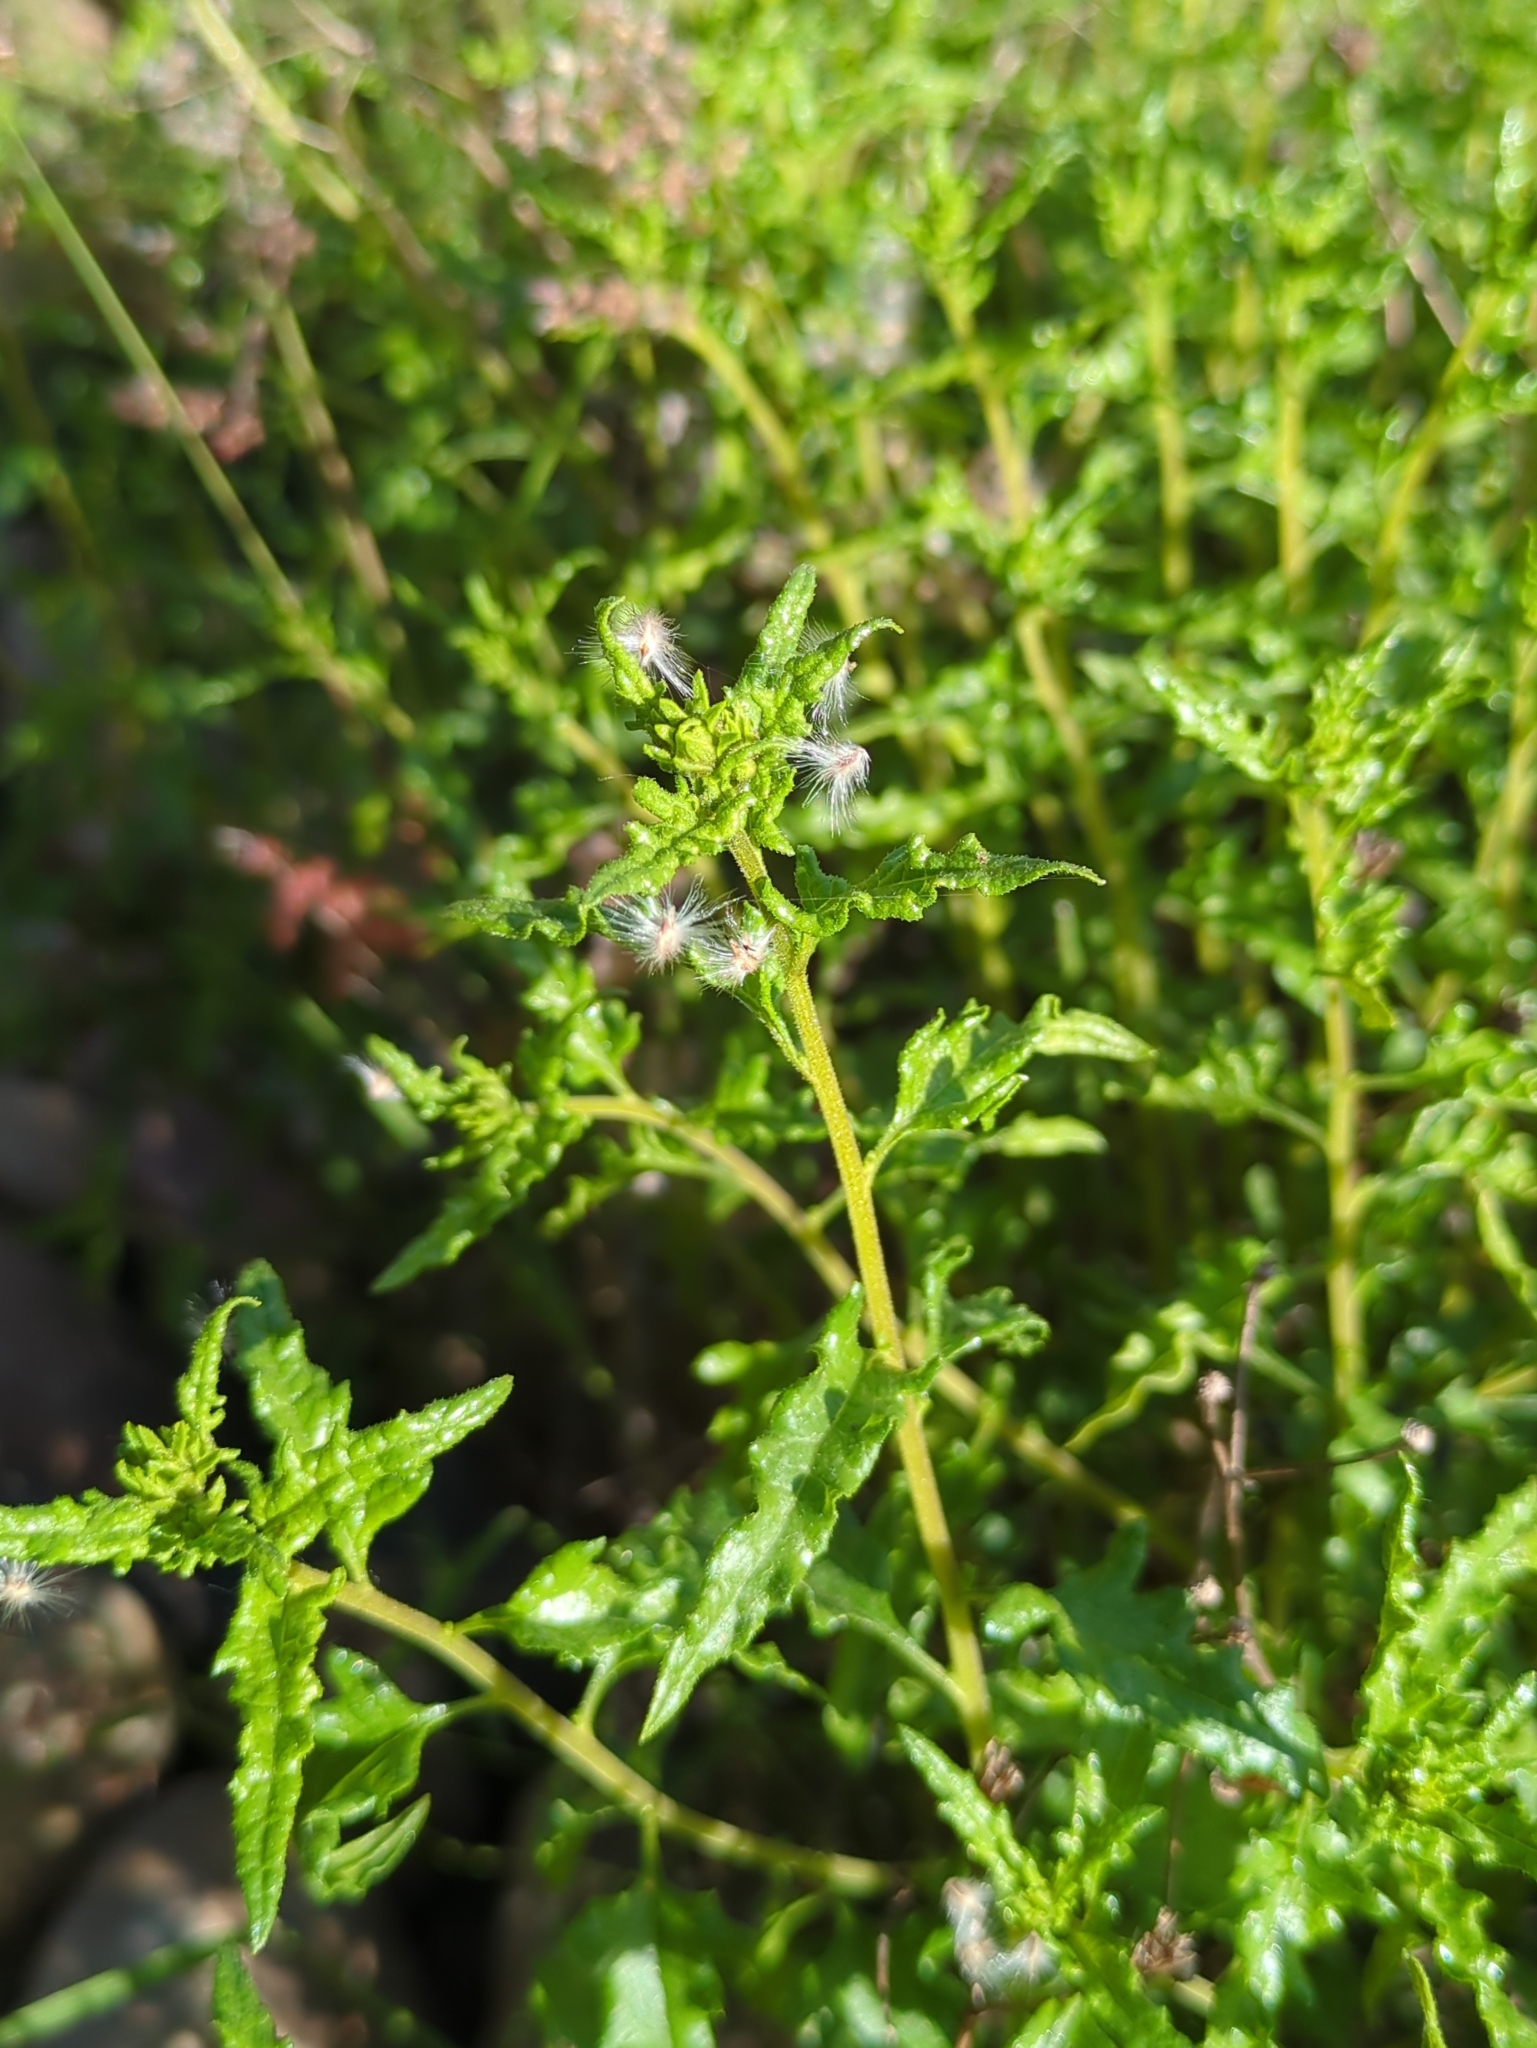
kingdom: Plantae
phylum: Tracheophyta
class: Magnoliopsida
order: Asterales
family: Asteraceae
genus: Bahiopsis
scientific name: Bahiopsis laciniata
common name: San diego county viguiera
